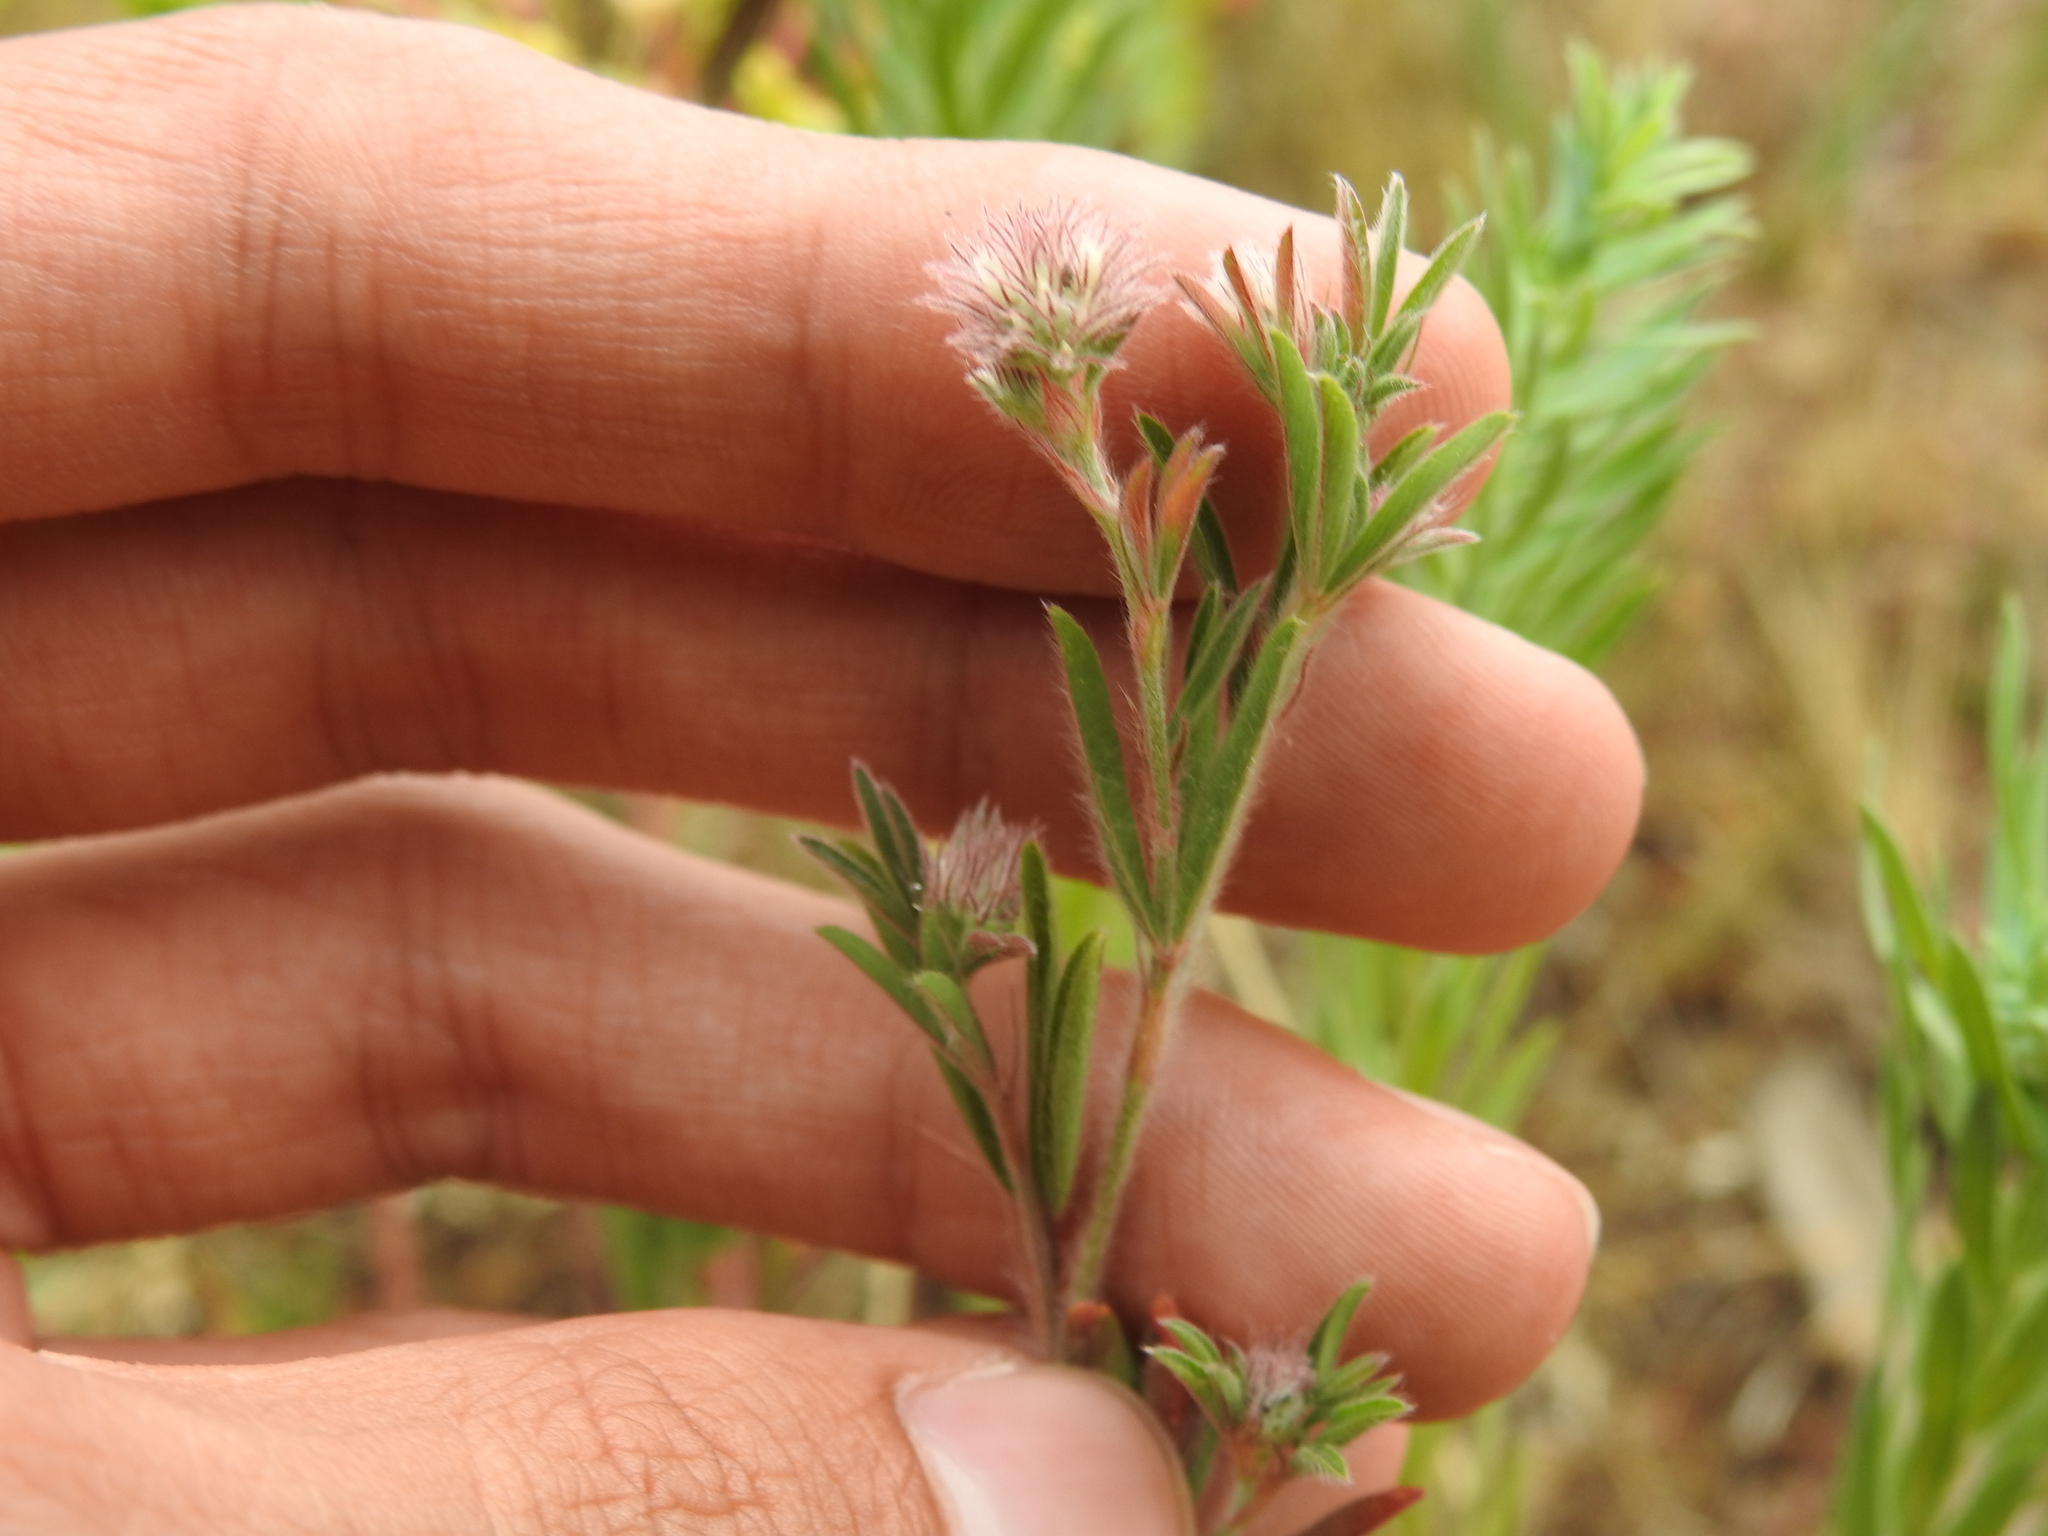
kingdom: Plantae
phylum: Tracheophyta
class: Magnoliopsida
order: Fabales
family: Fabaceae
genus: Trifolium
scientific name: Trifolium arvense
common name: Hare's-foot clover
